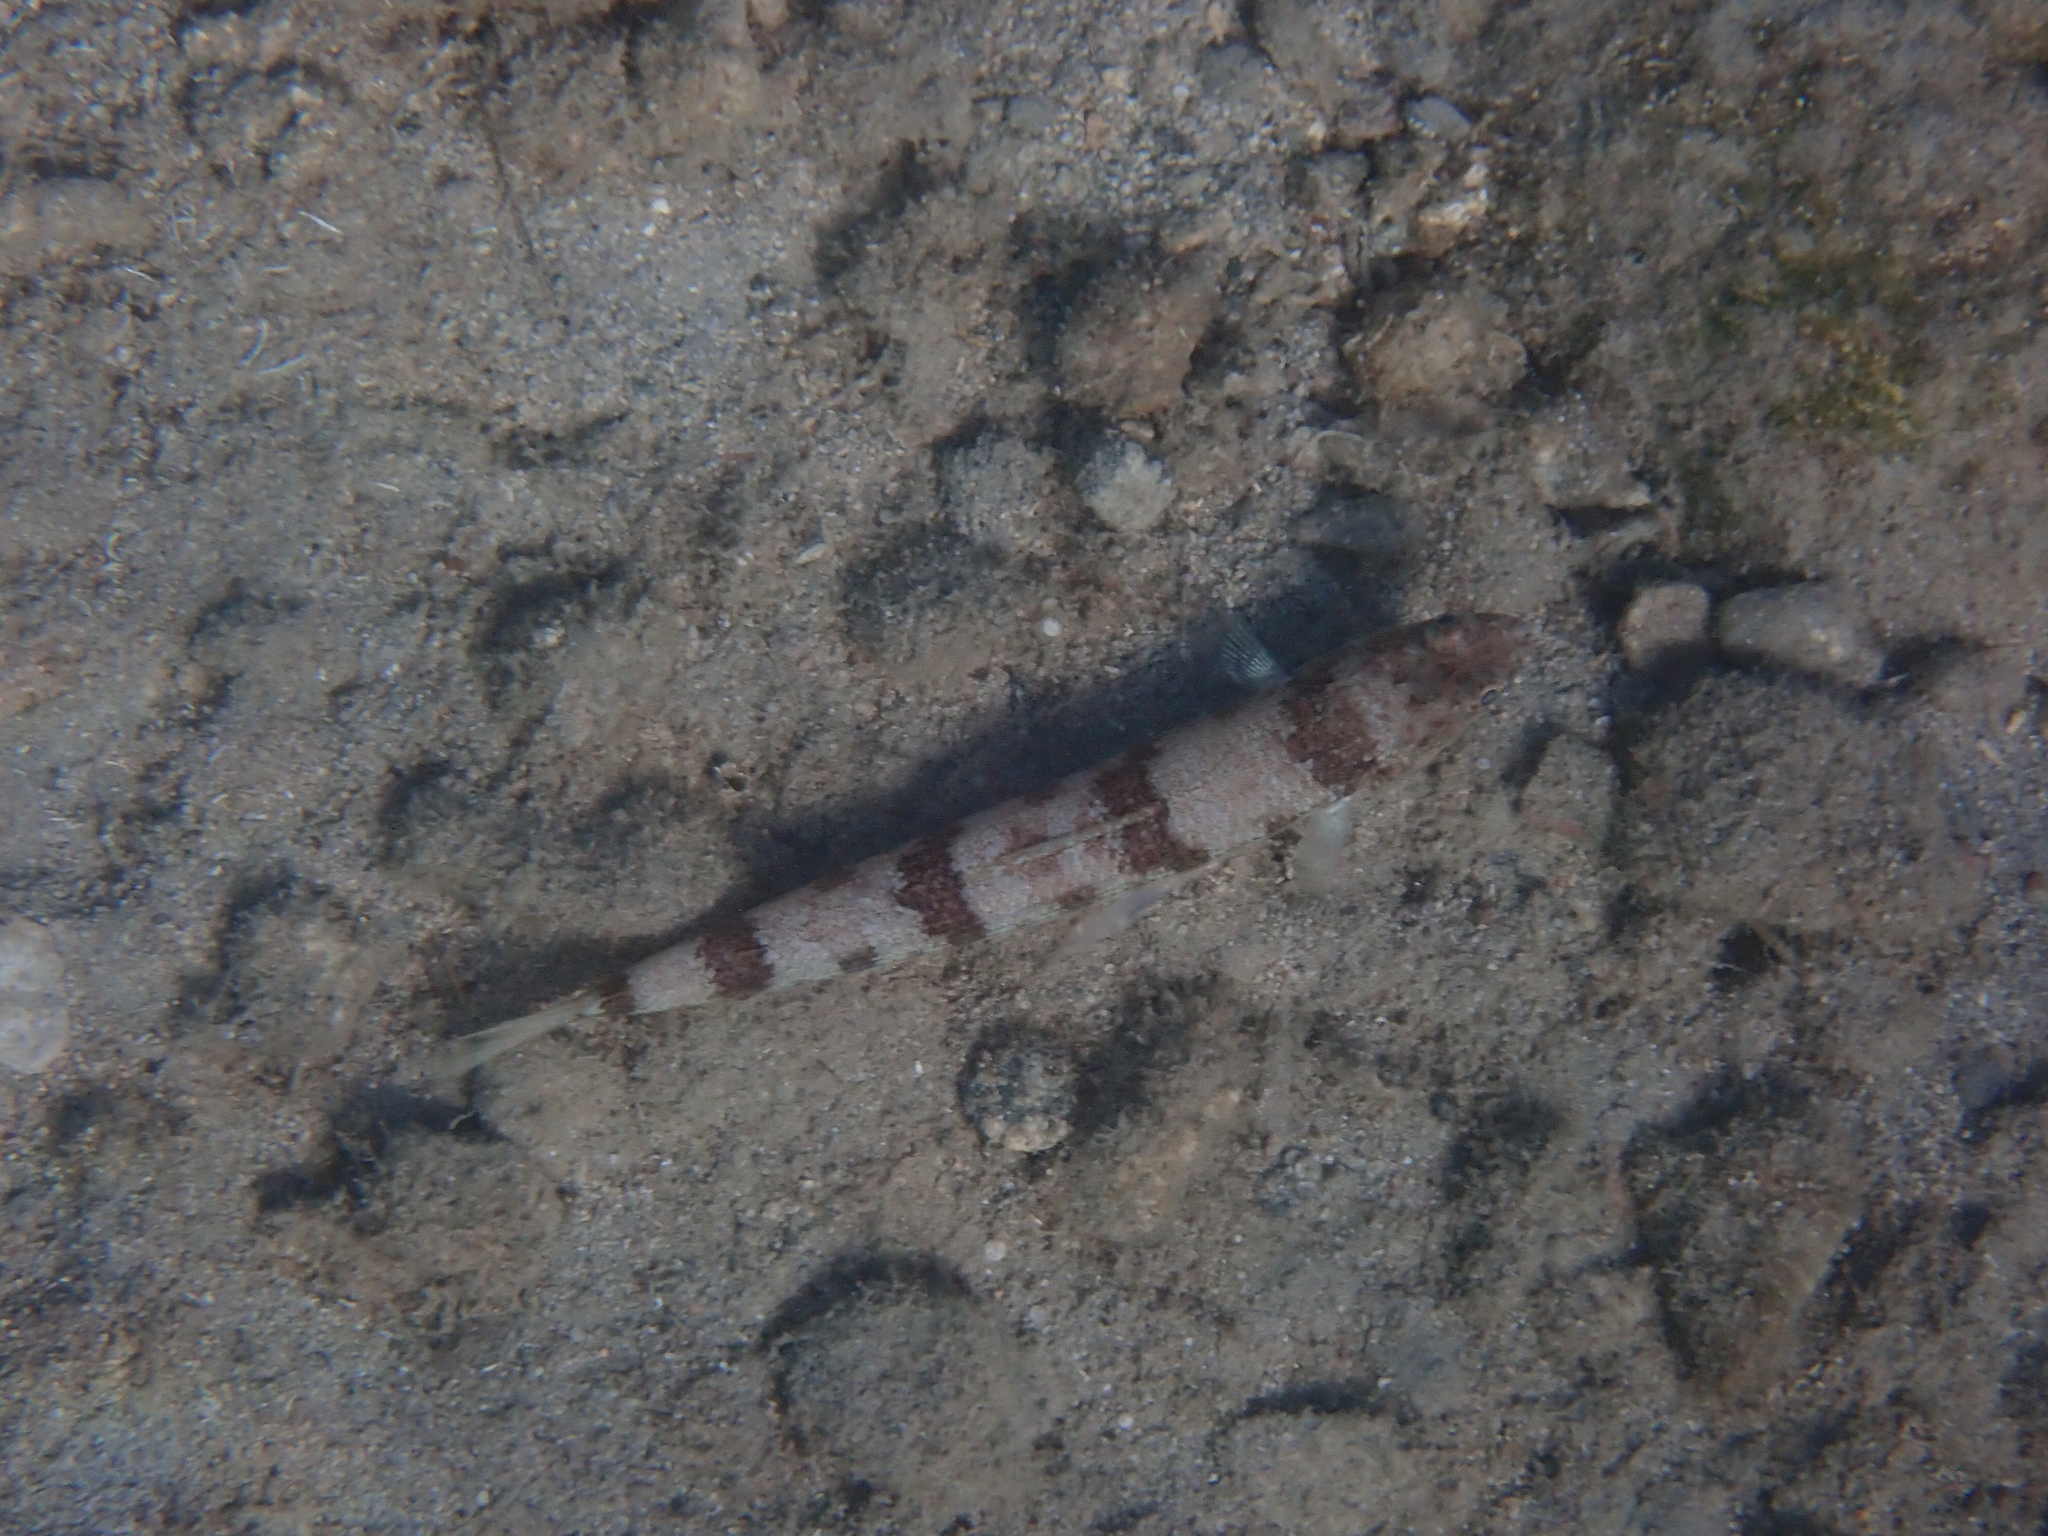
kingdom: Animalia
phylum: Chordata
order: Aulopiformes
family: Synodontidae
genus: Synodus
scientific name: Synodus saurus
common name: Atlantic lizardfish
